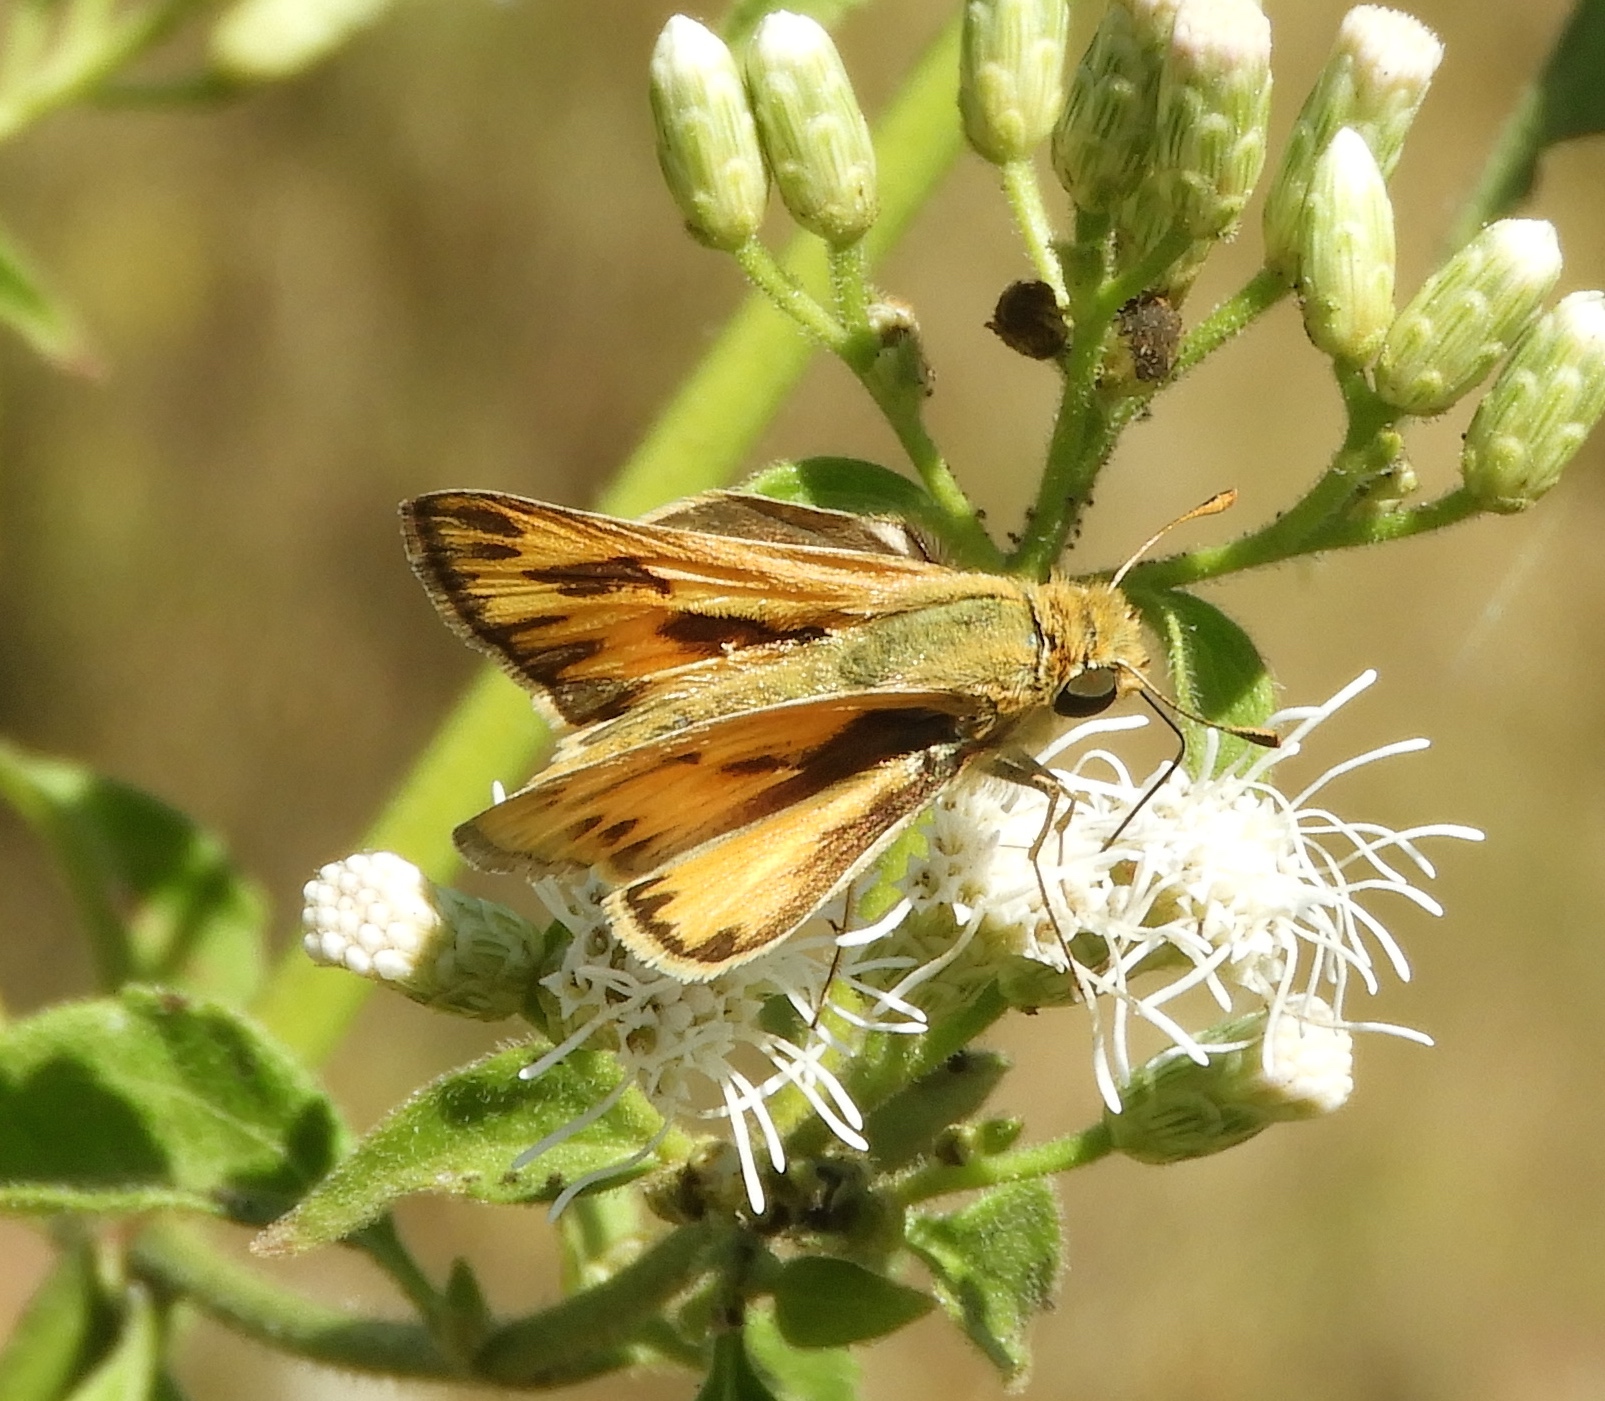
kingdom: Animalia
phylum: Arthropoda
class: Insecta
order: Lepidoptera
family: Hesperiidae
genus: Hylephila
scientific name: Hylephila phyleus
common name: Fiery skipper
